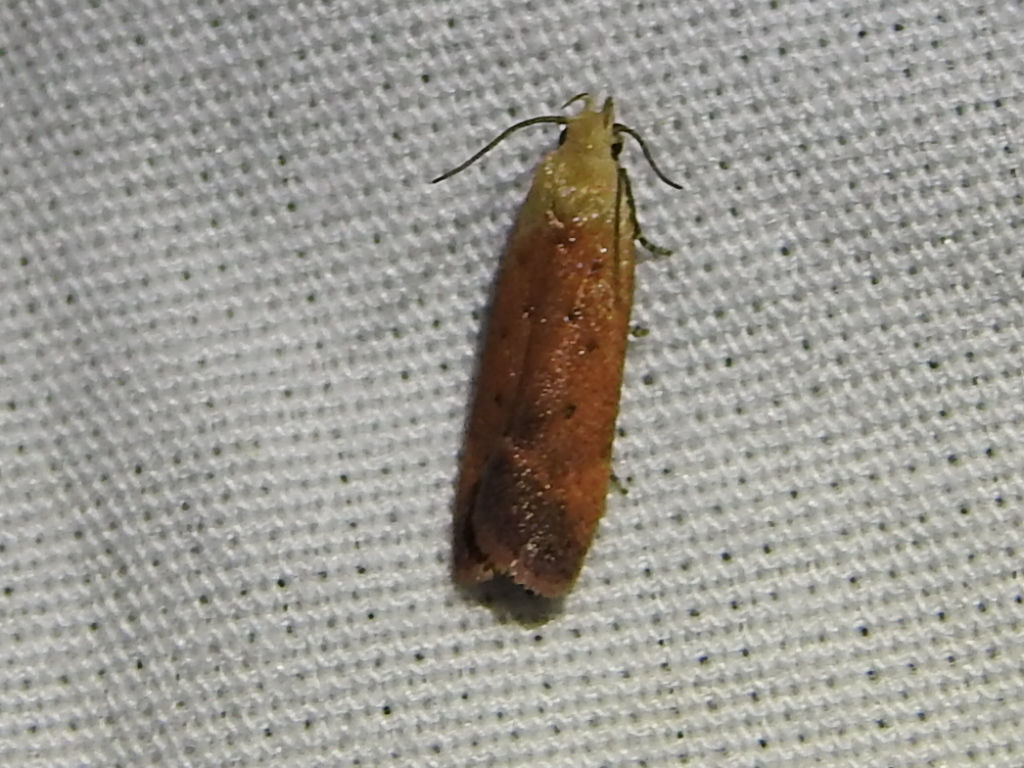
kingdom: Animalia
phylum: Arthropoda
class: Insecta
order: Lepidoptera
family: Gelechiidae
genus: Anacampsis
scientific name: Anacampsis fullonella
